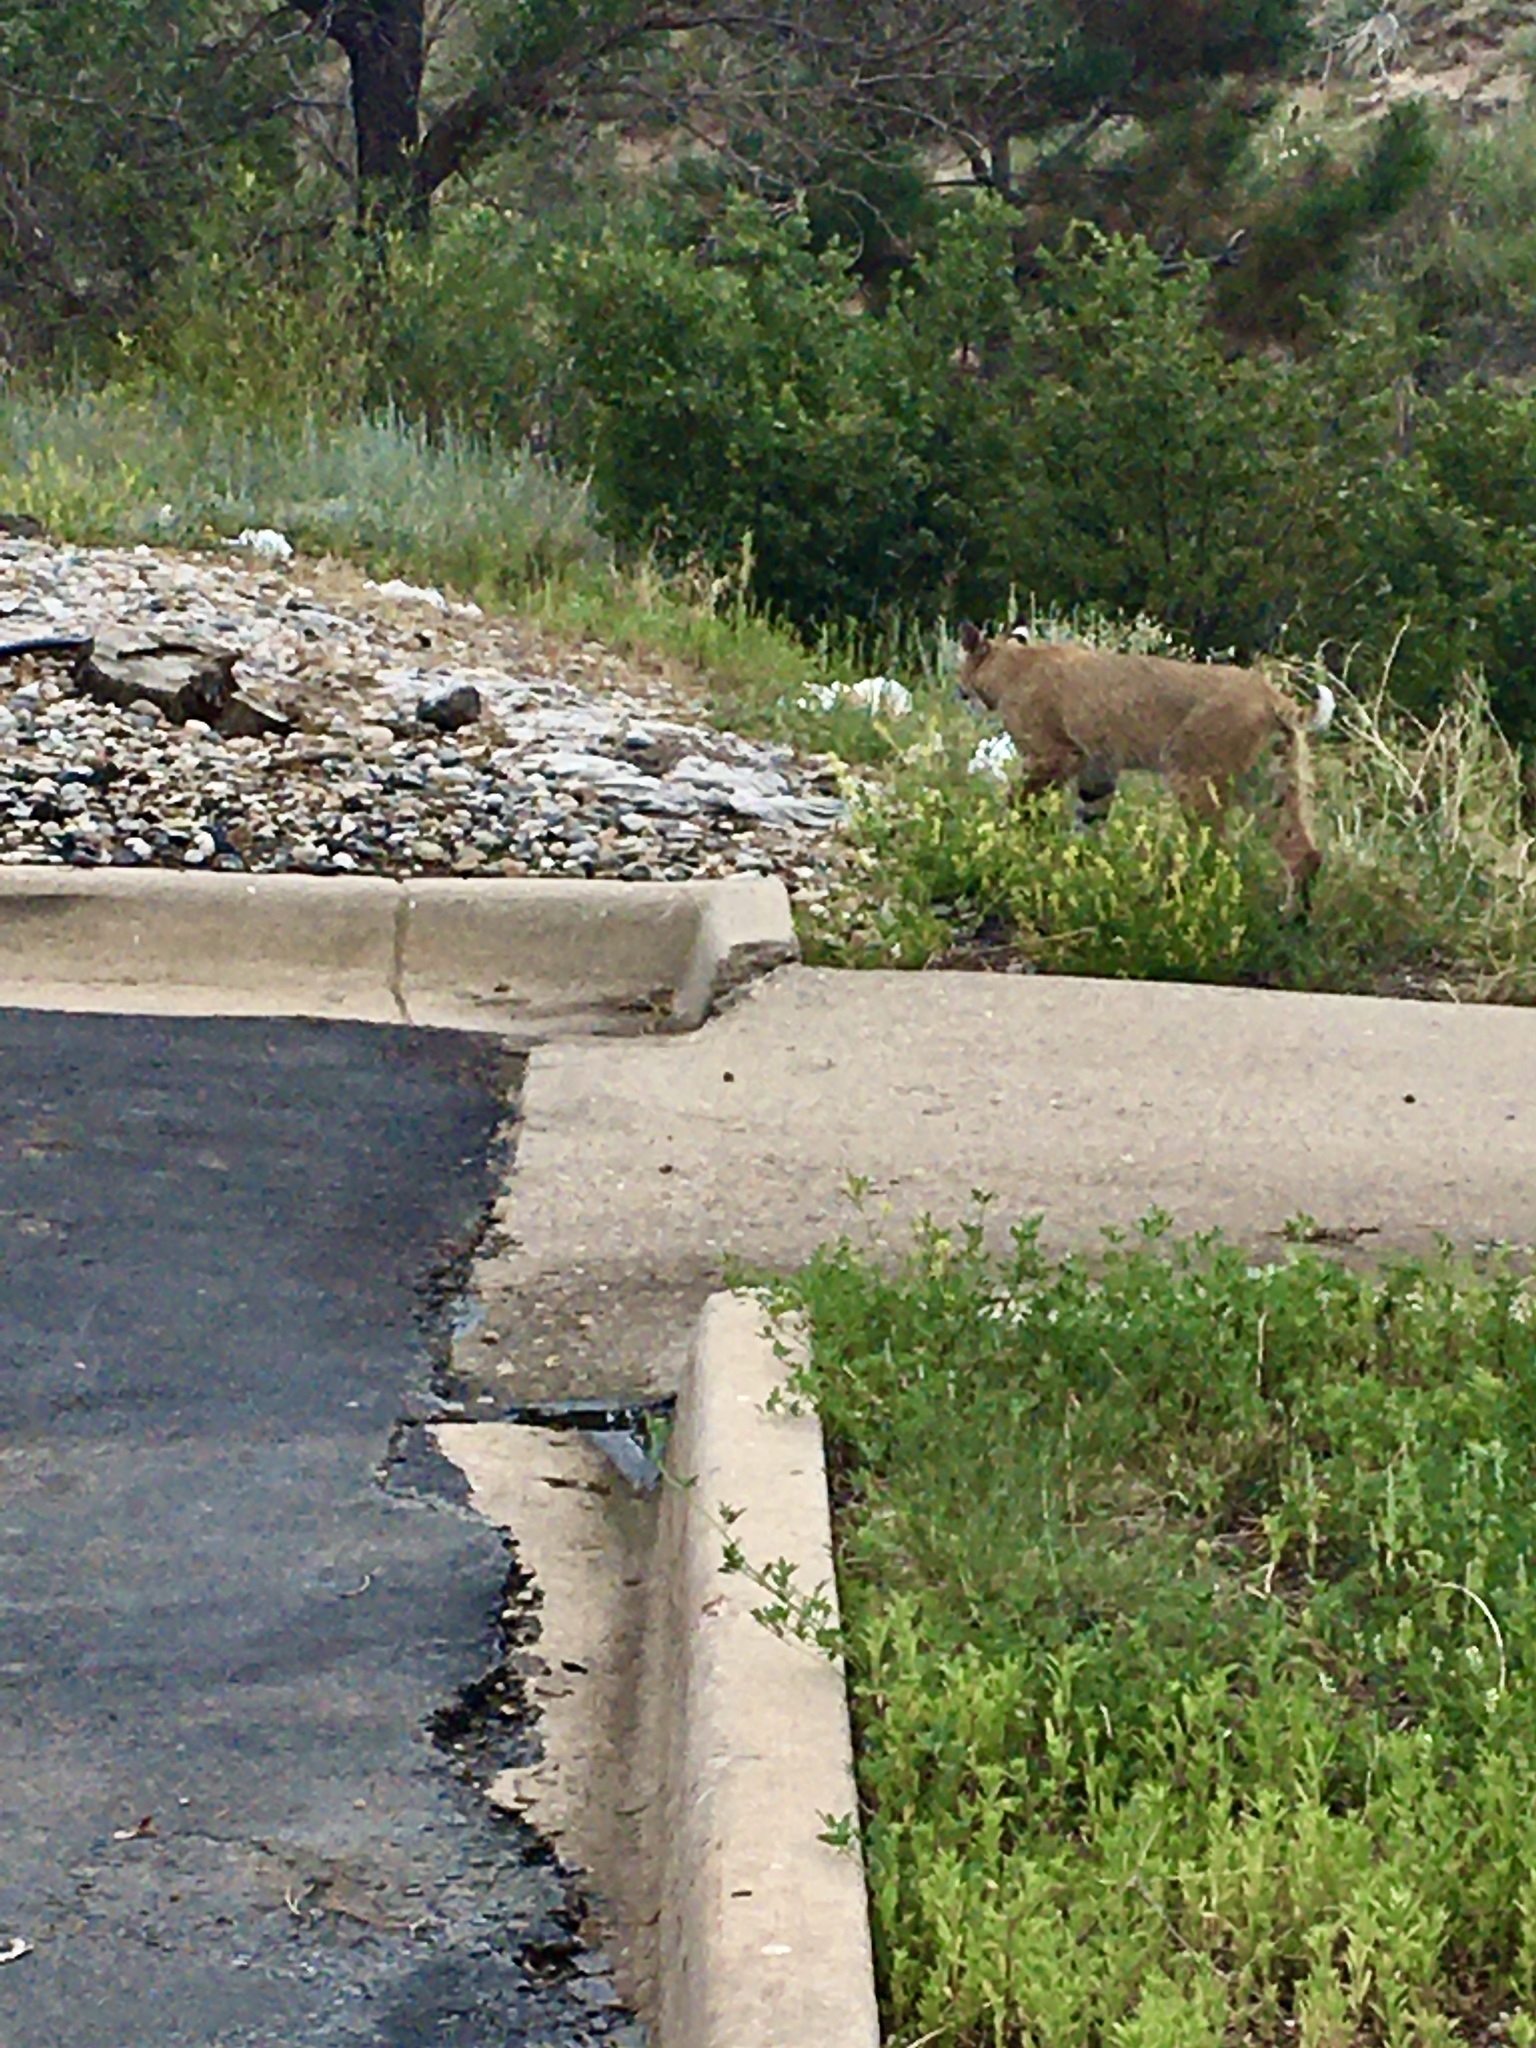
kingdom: Animalia
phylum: Chordata
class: Mammalia
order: Carnivora
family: Felidae
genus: Lynx
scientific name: Lynx rufus
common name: Bobcat
